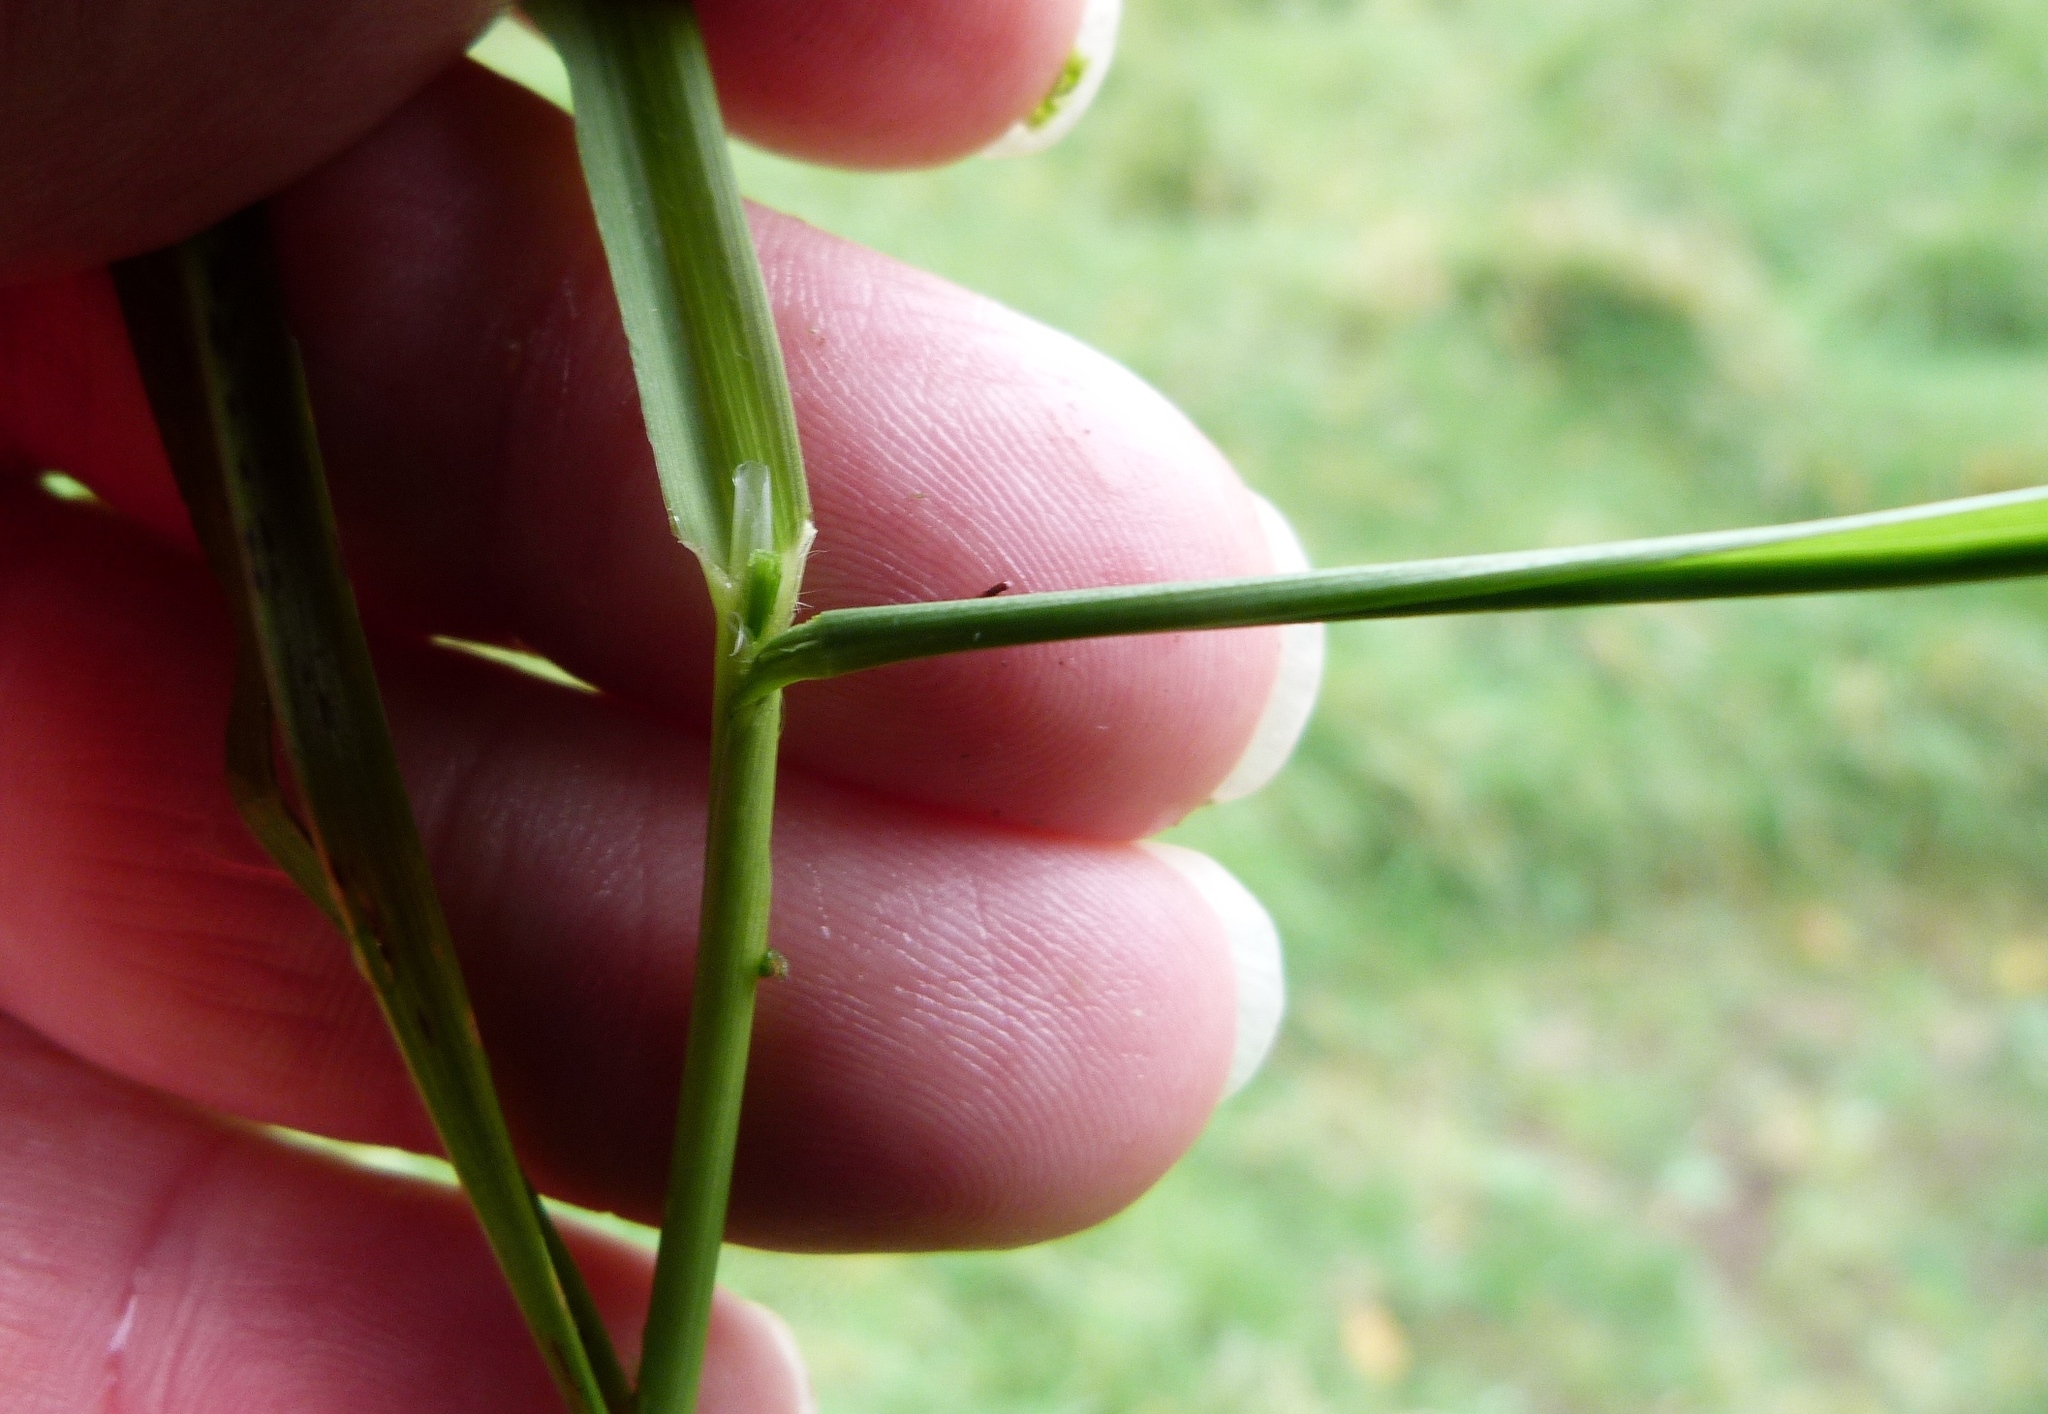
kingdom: Plantae
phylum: Tracheophyta
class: Liliopsida
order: Poales
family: Poaceae
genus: Dactylis
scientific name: Dactylis glomerata
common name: Orchardgrass
